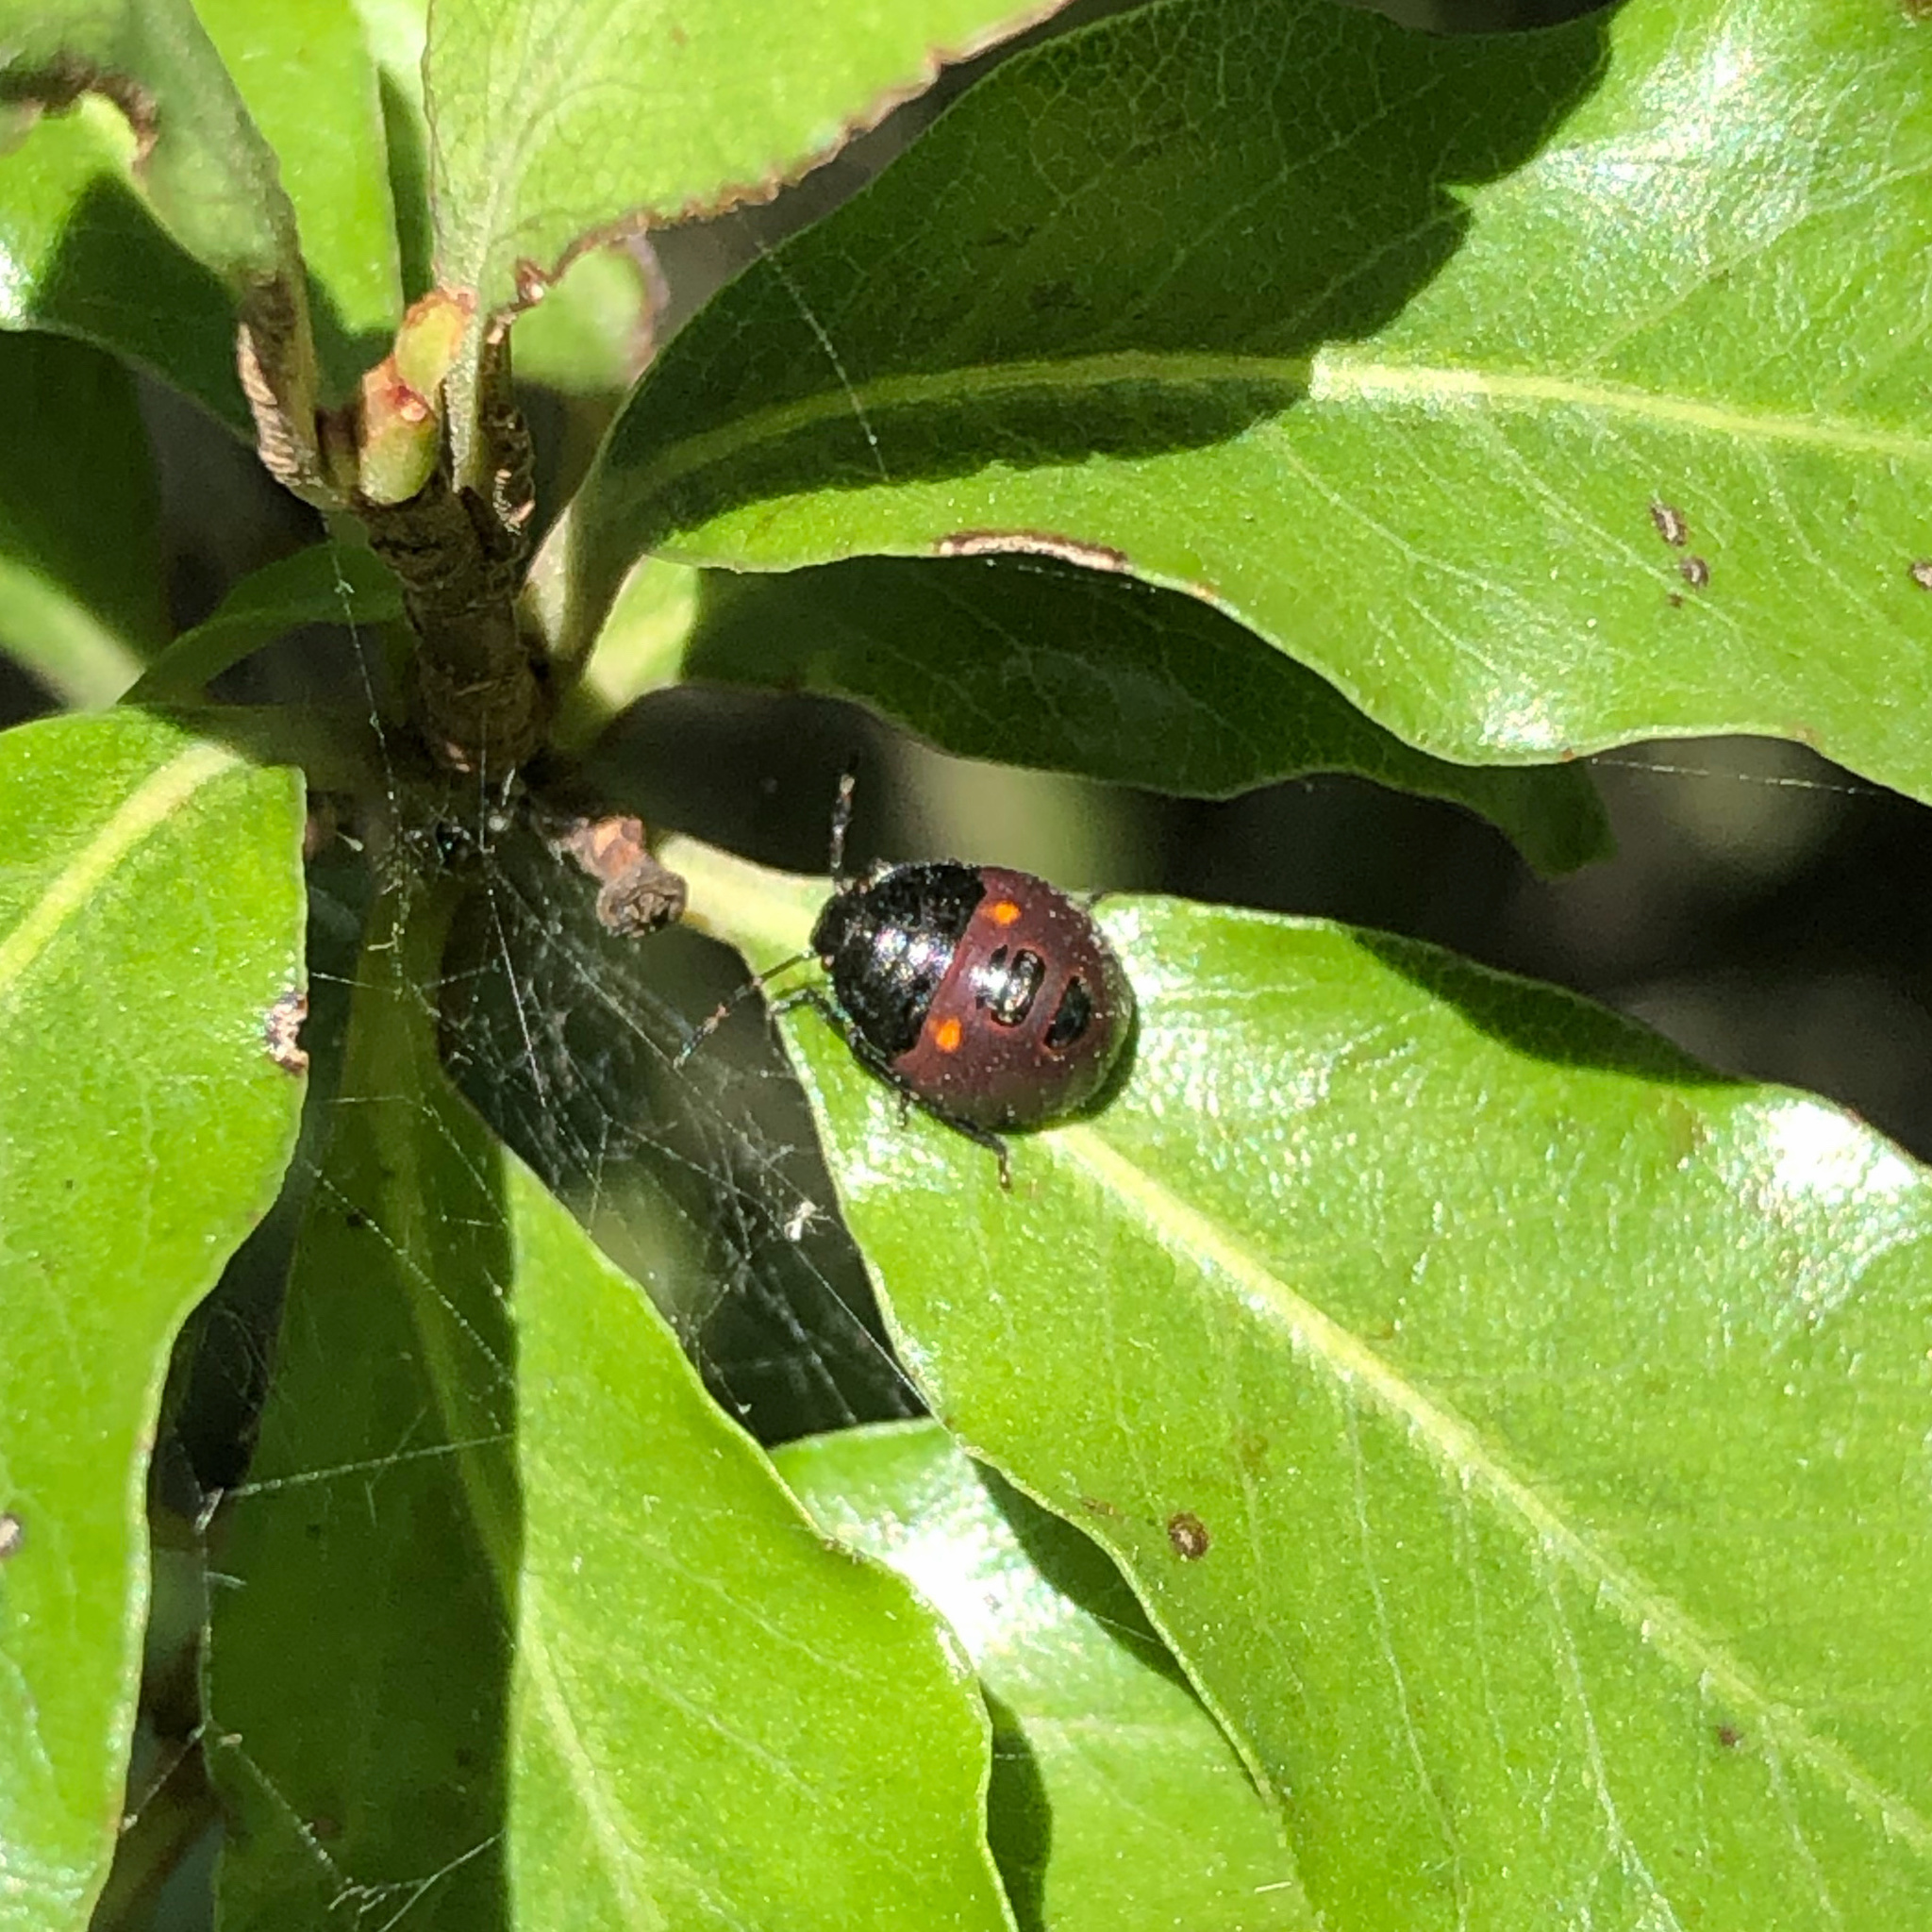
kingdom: Animalia
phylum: Arthropoda
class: Insecta
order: Hemiptera
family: Pentatomidae
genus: Monteithiella
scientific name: Monteithiella
